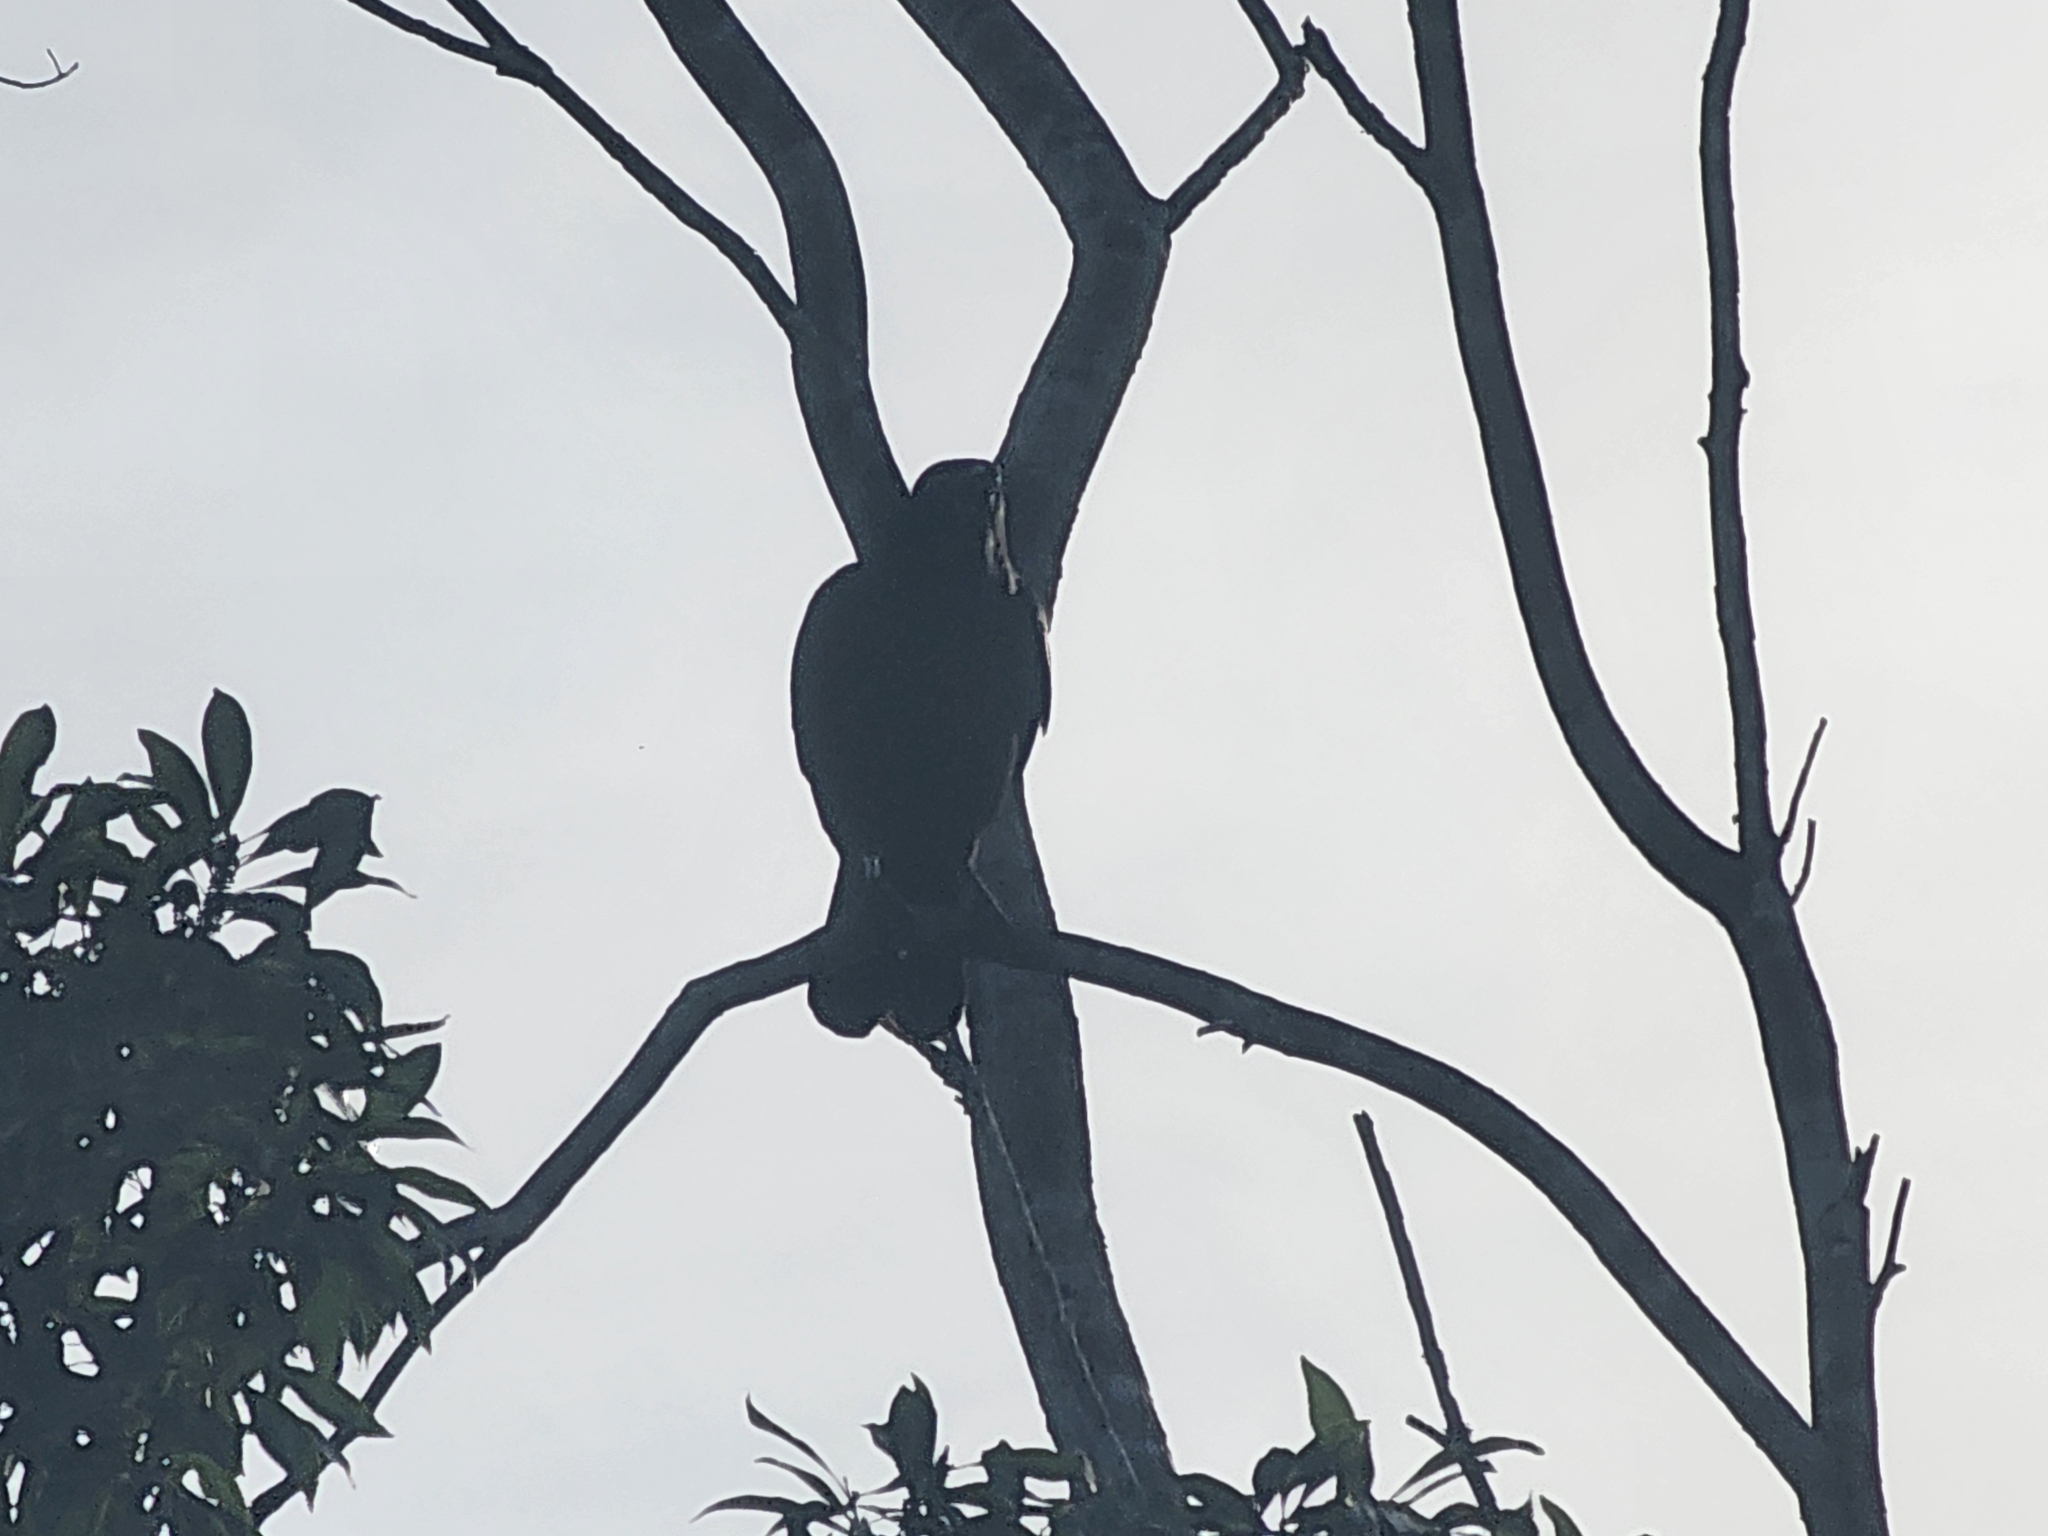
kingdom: Animalia
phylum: Chordata
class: Aves
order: Passeriformes
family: Corvidae
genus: Corvus
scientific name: Corvus brachyrhynchos
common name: American crow
